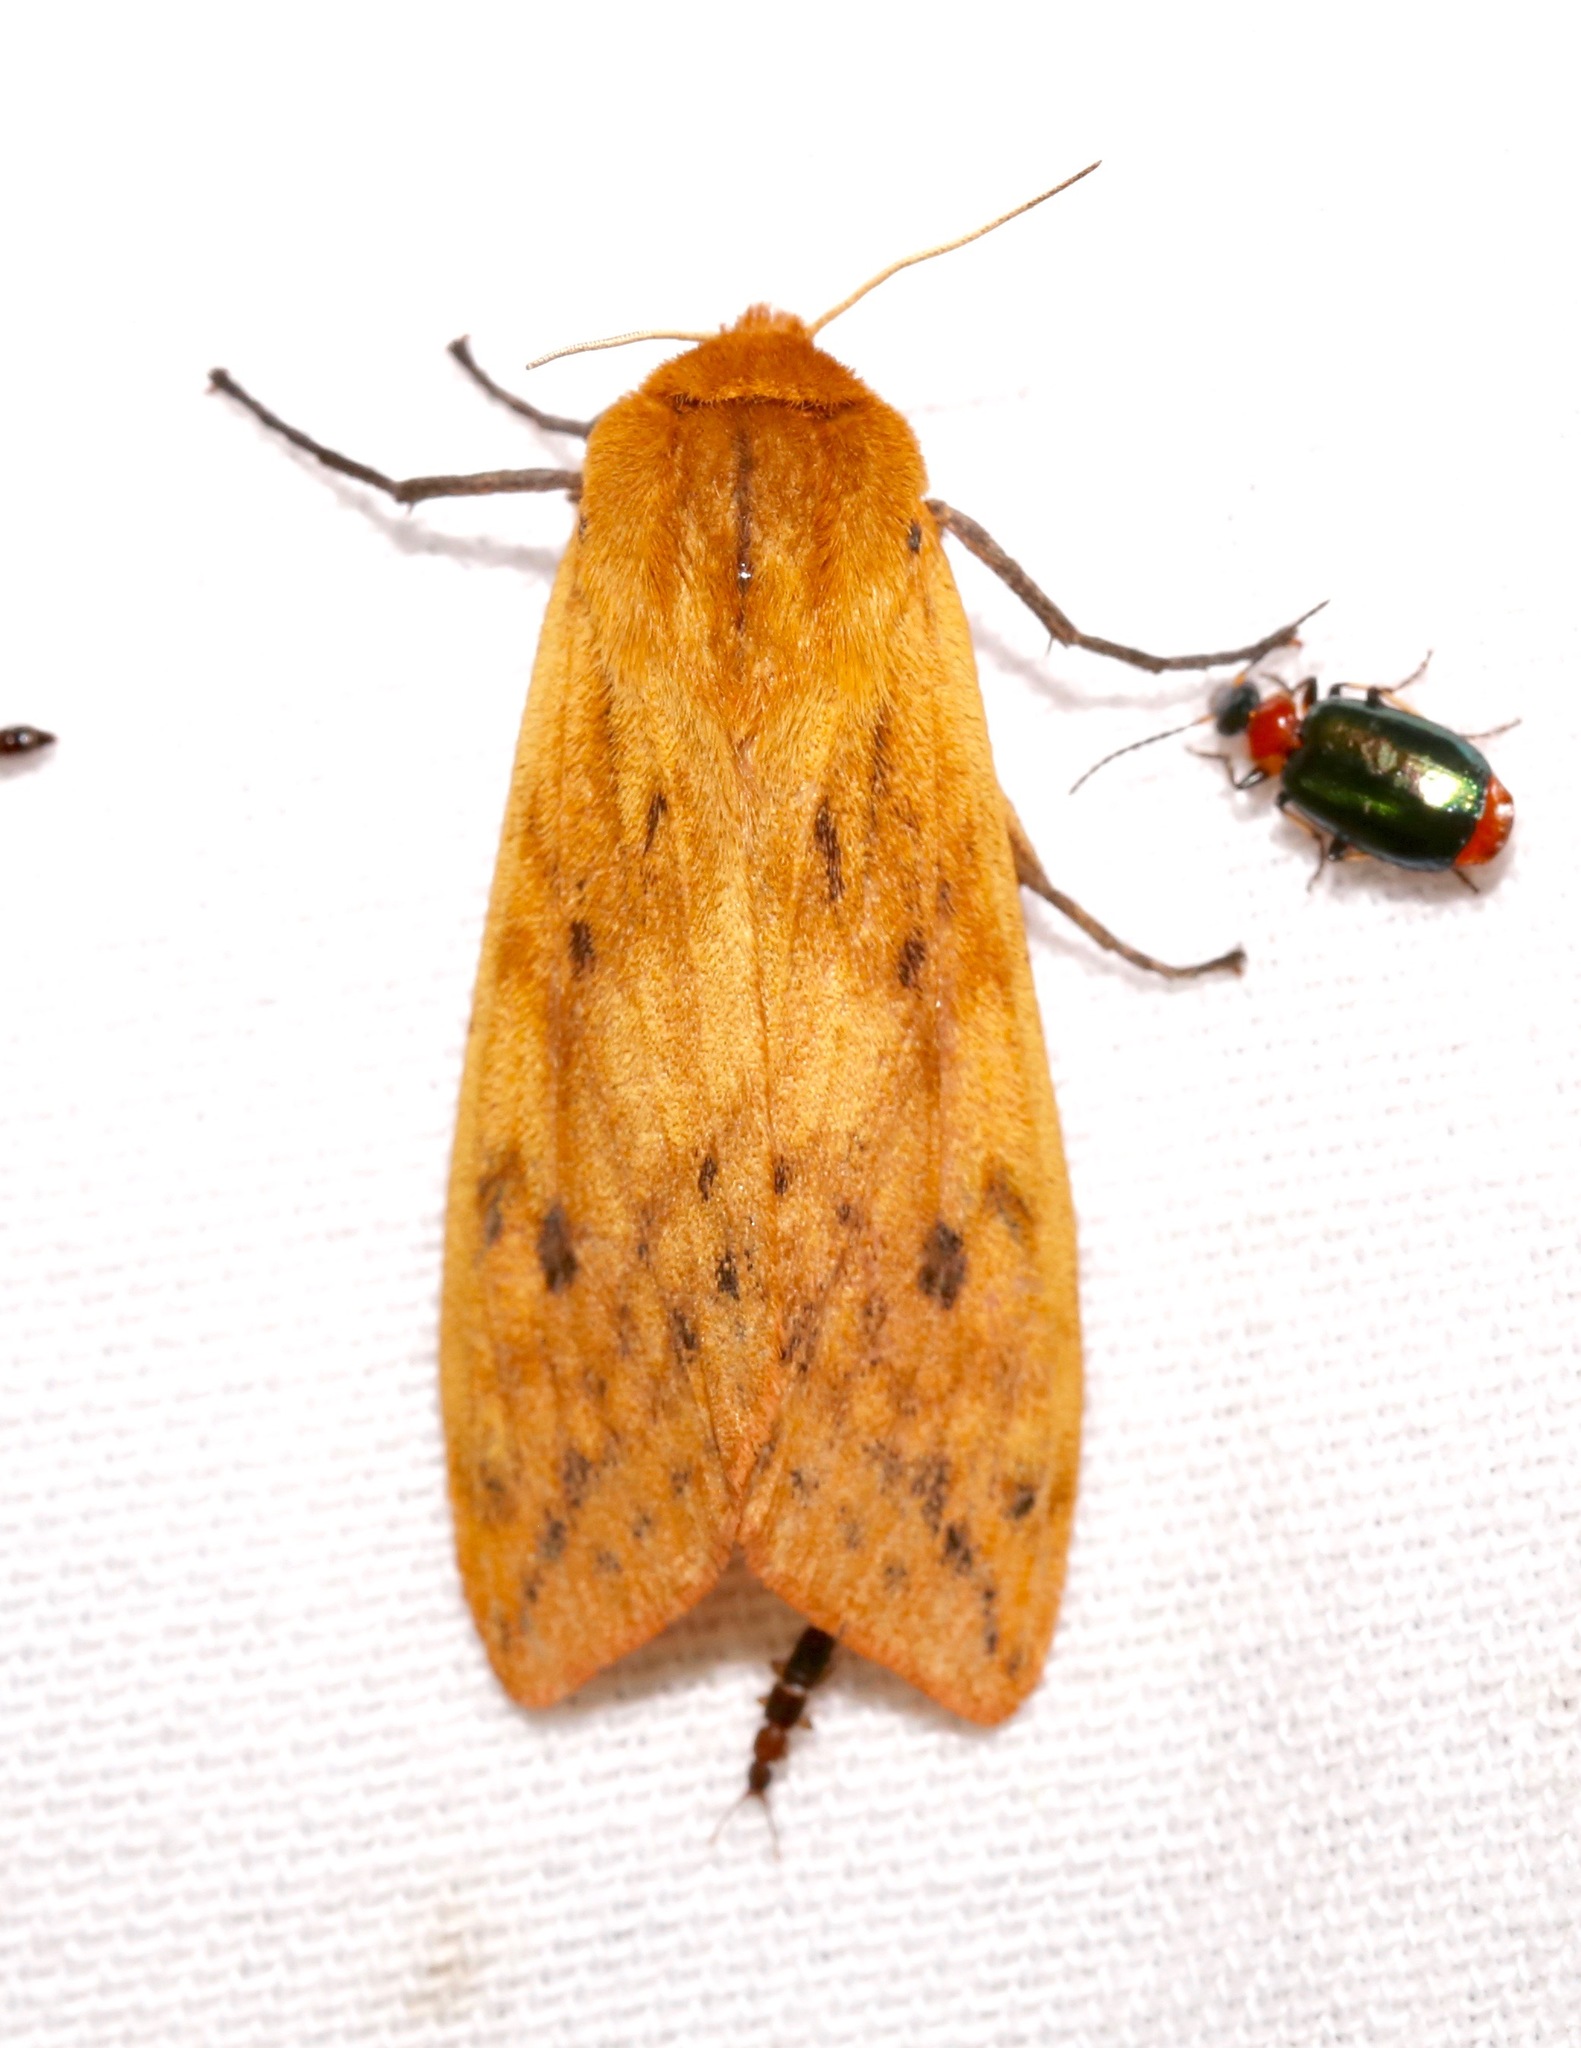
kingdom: Animalia
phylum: Arthropoda
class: Insecta
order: Lepidoptera
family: Erebidae
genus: Pyrrharctia
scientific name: Pyrrharctia isabella
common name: Isabella tiger moth
